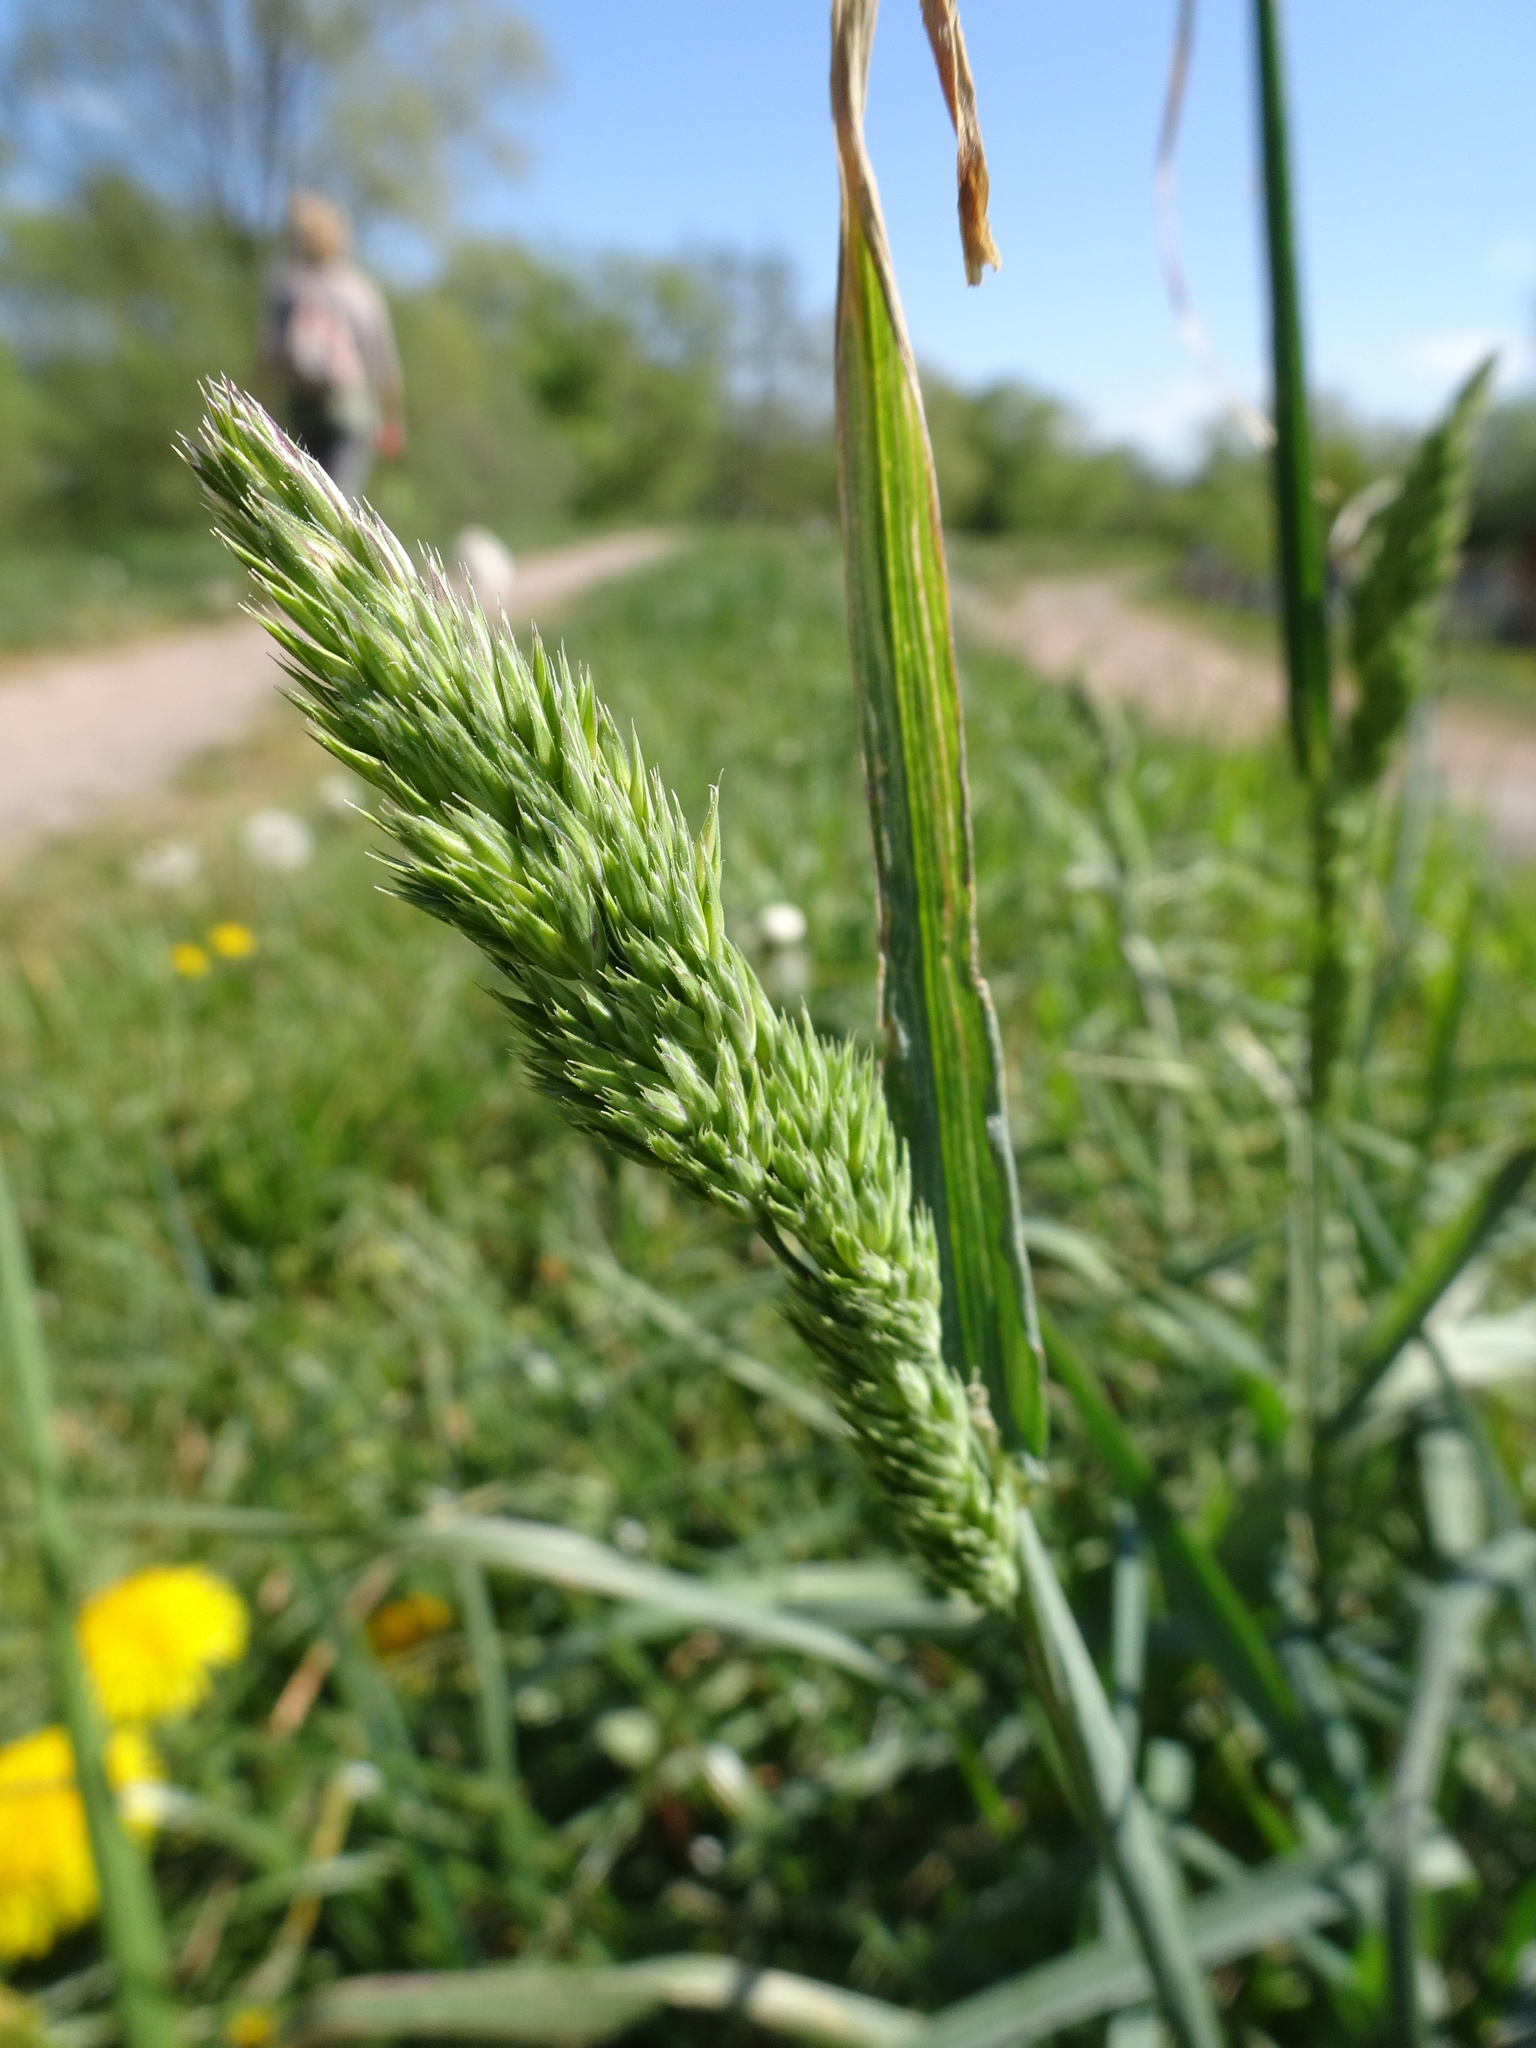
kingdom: Plantae
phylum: Tracheophyta
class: Liliopsida
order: Poales
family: Poaceae
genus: Dactylis
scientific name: Dactylis glomerata
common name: Orchardgrass
